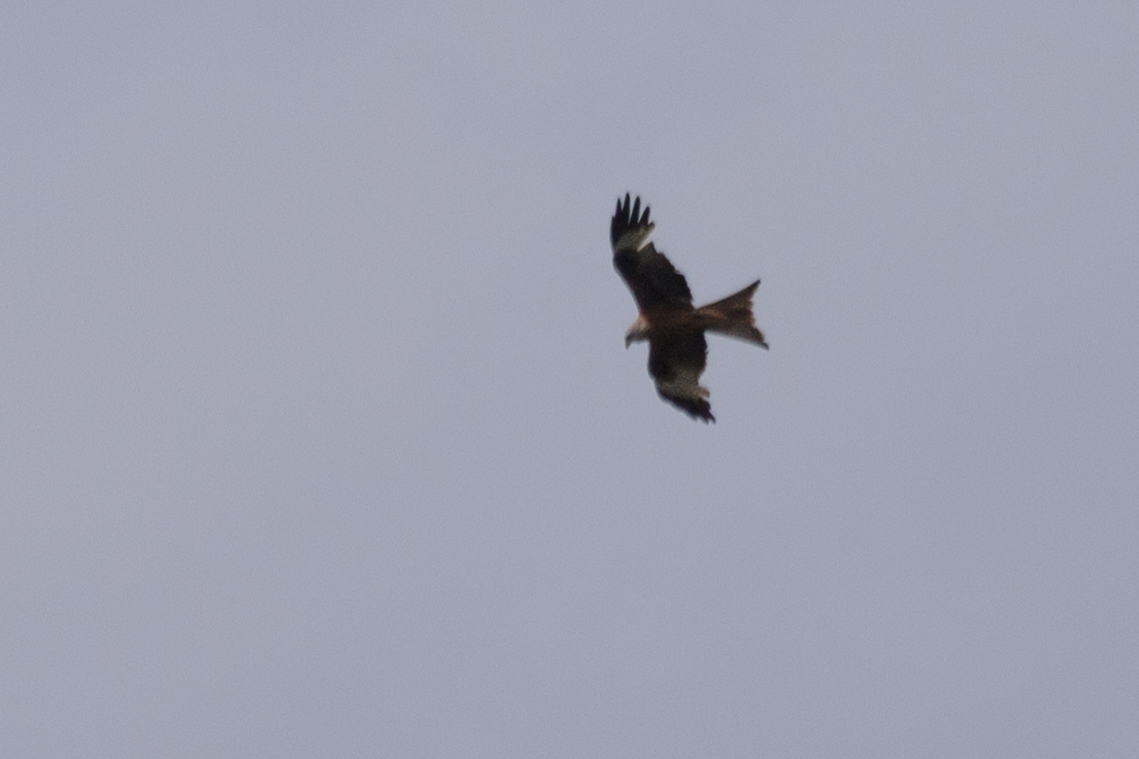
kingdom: Animalia
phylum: Chordata
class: Aves
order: Accipitriformes
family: Accipitridae
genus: Milvus
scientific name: Milvus milvus
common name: Red kite
